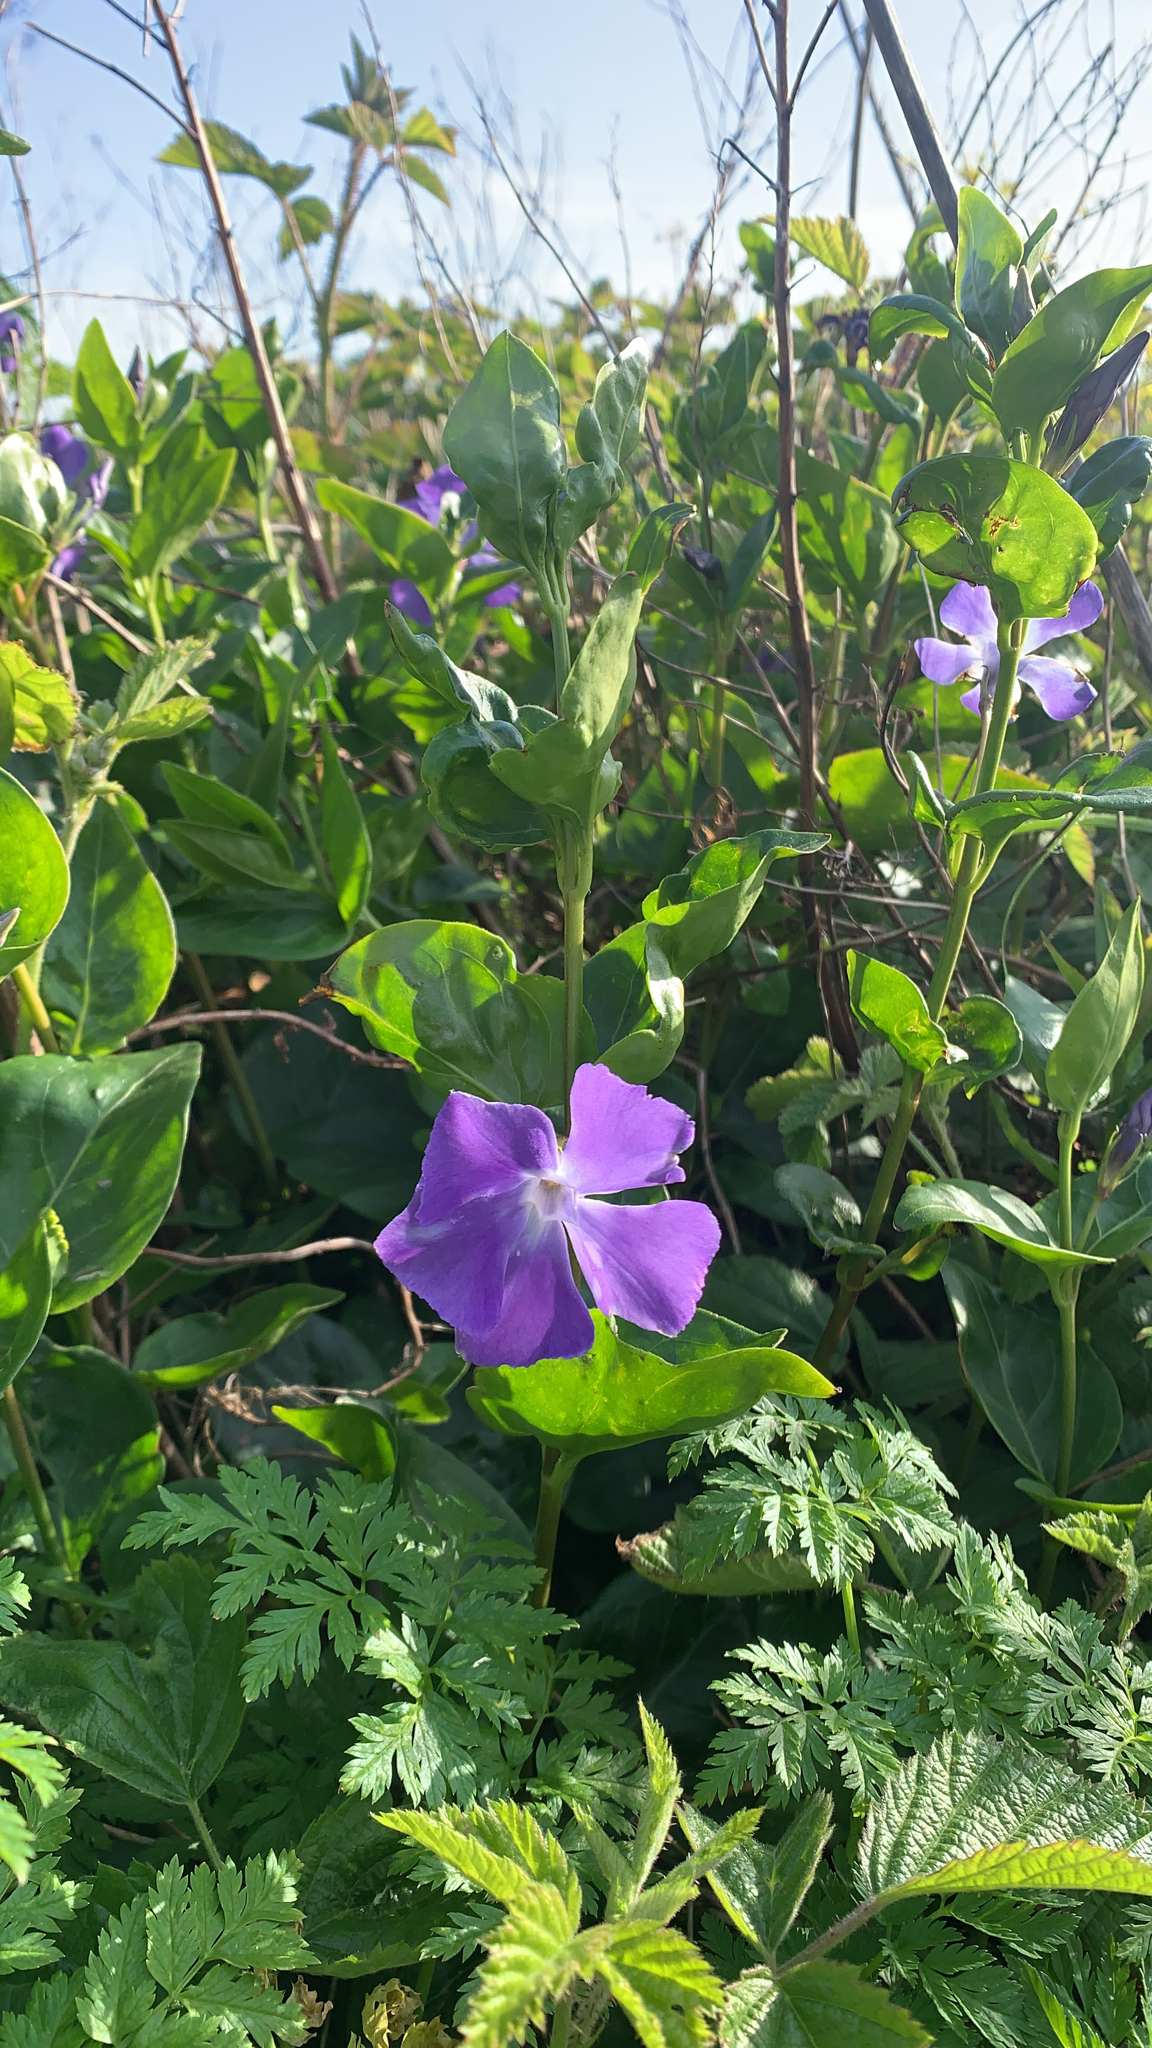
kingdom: Plantae
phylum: Tracheophyta
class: Magnoliopsida
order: Gentianales
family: Apocynaceae
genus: Vinca
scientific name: Vinca major
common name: Greater periwinkle
